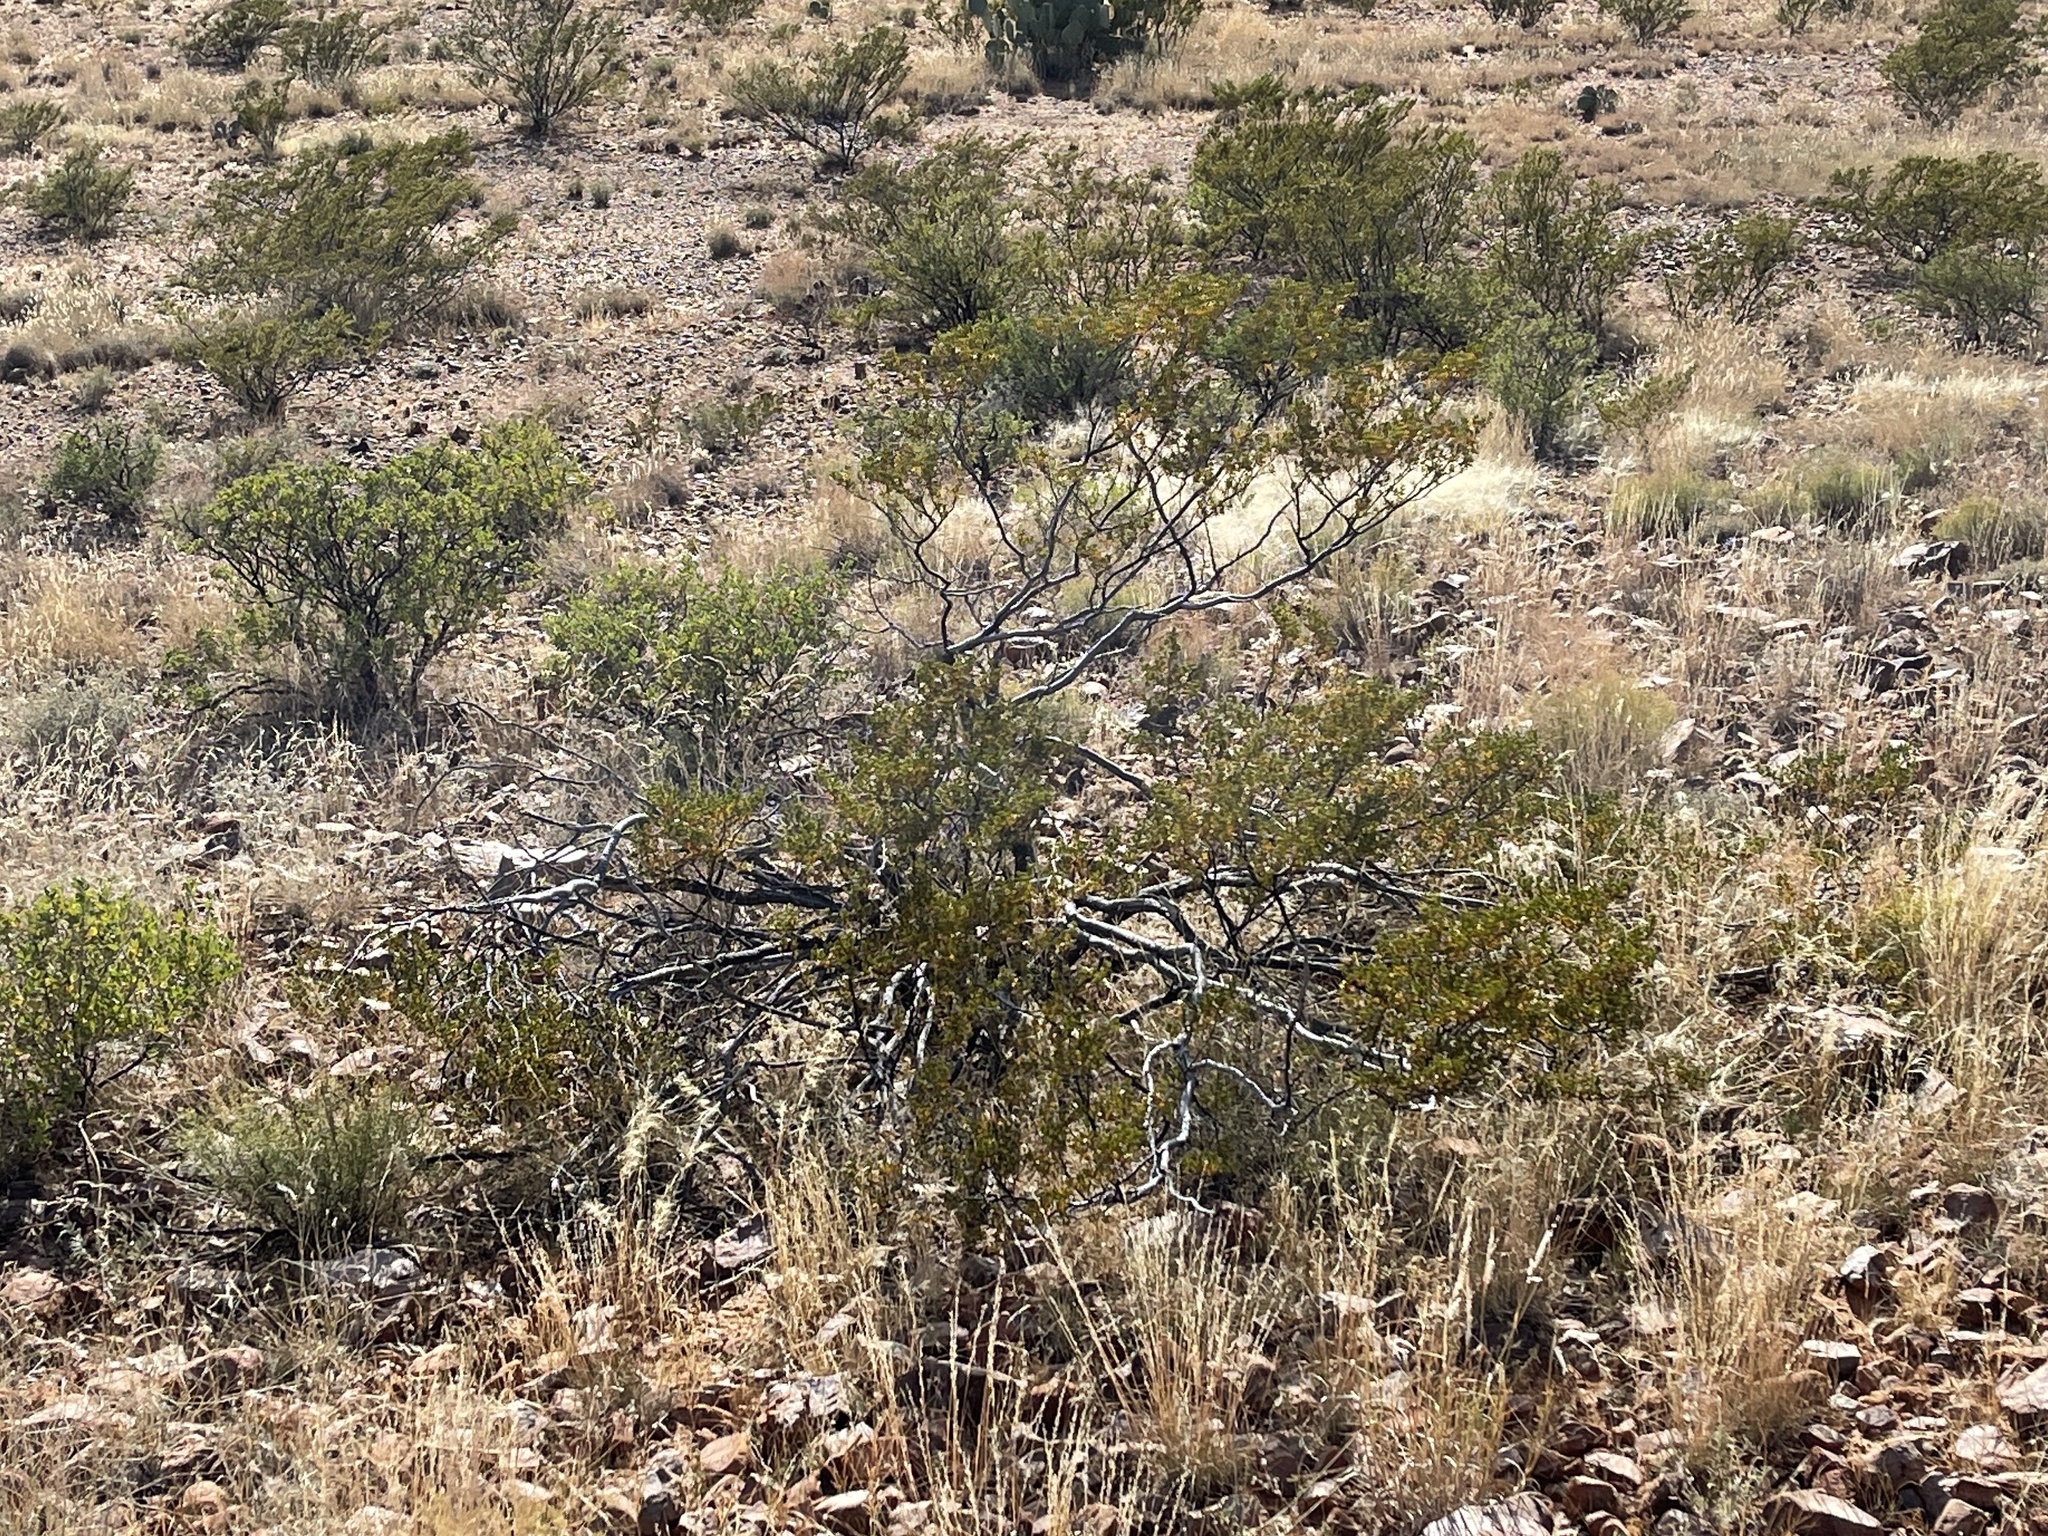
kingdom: Plantae
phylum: Tracheophyta
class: Magnoliopsida
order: Zygophyllales
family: Zygophyllaceae
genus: Larrea
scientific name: Larrea tridentata
